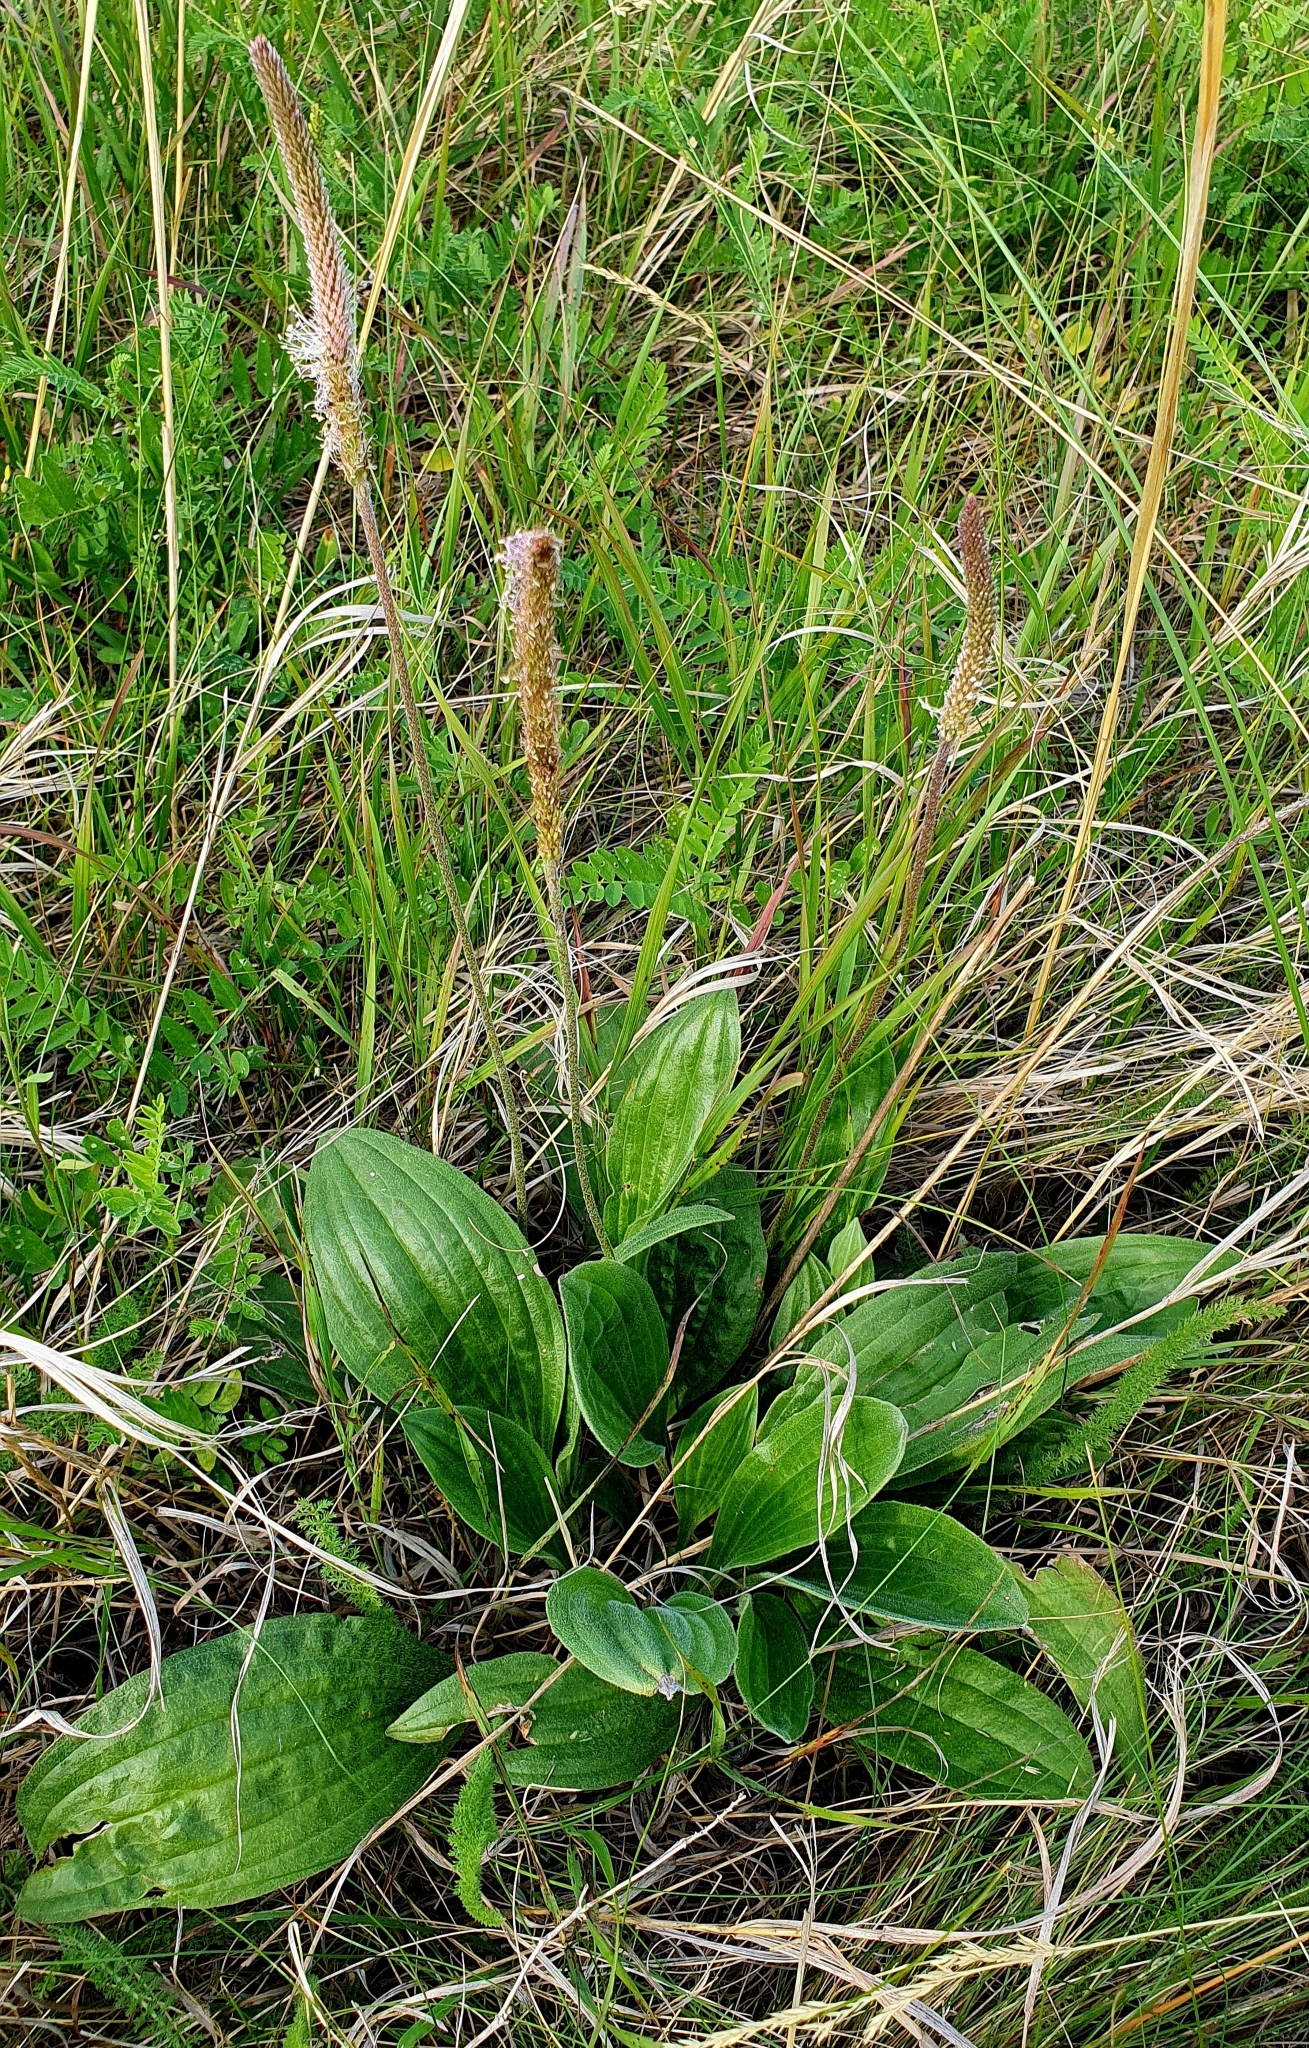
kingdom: Plantae
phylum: Tracheophyta
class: Magnoliopsida
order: Lamiales
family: Plantaginaceae
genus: Plantago
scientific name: Plantago urvillei
